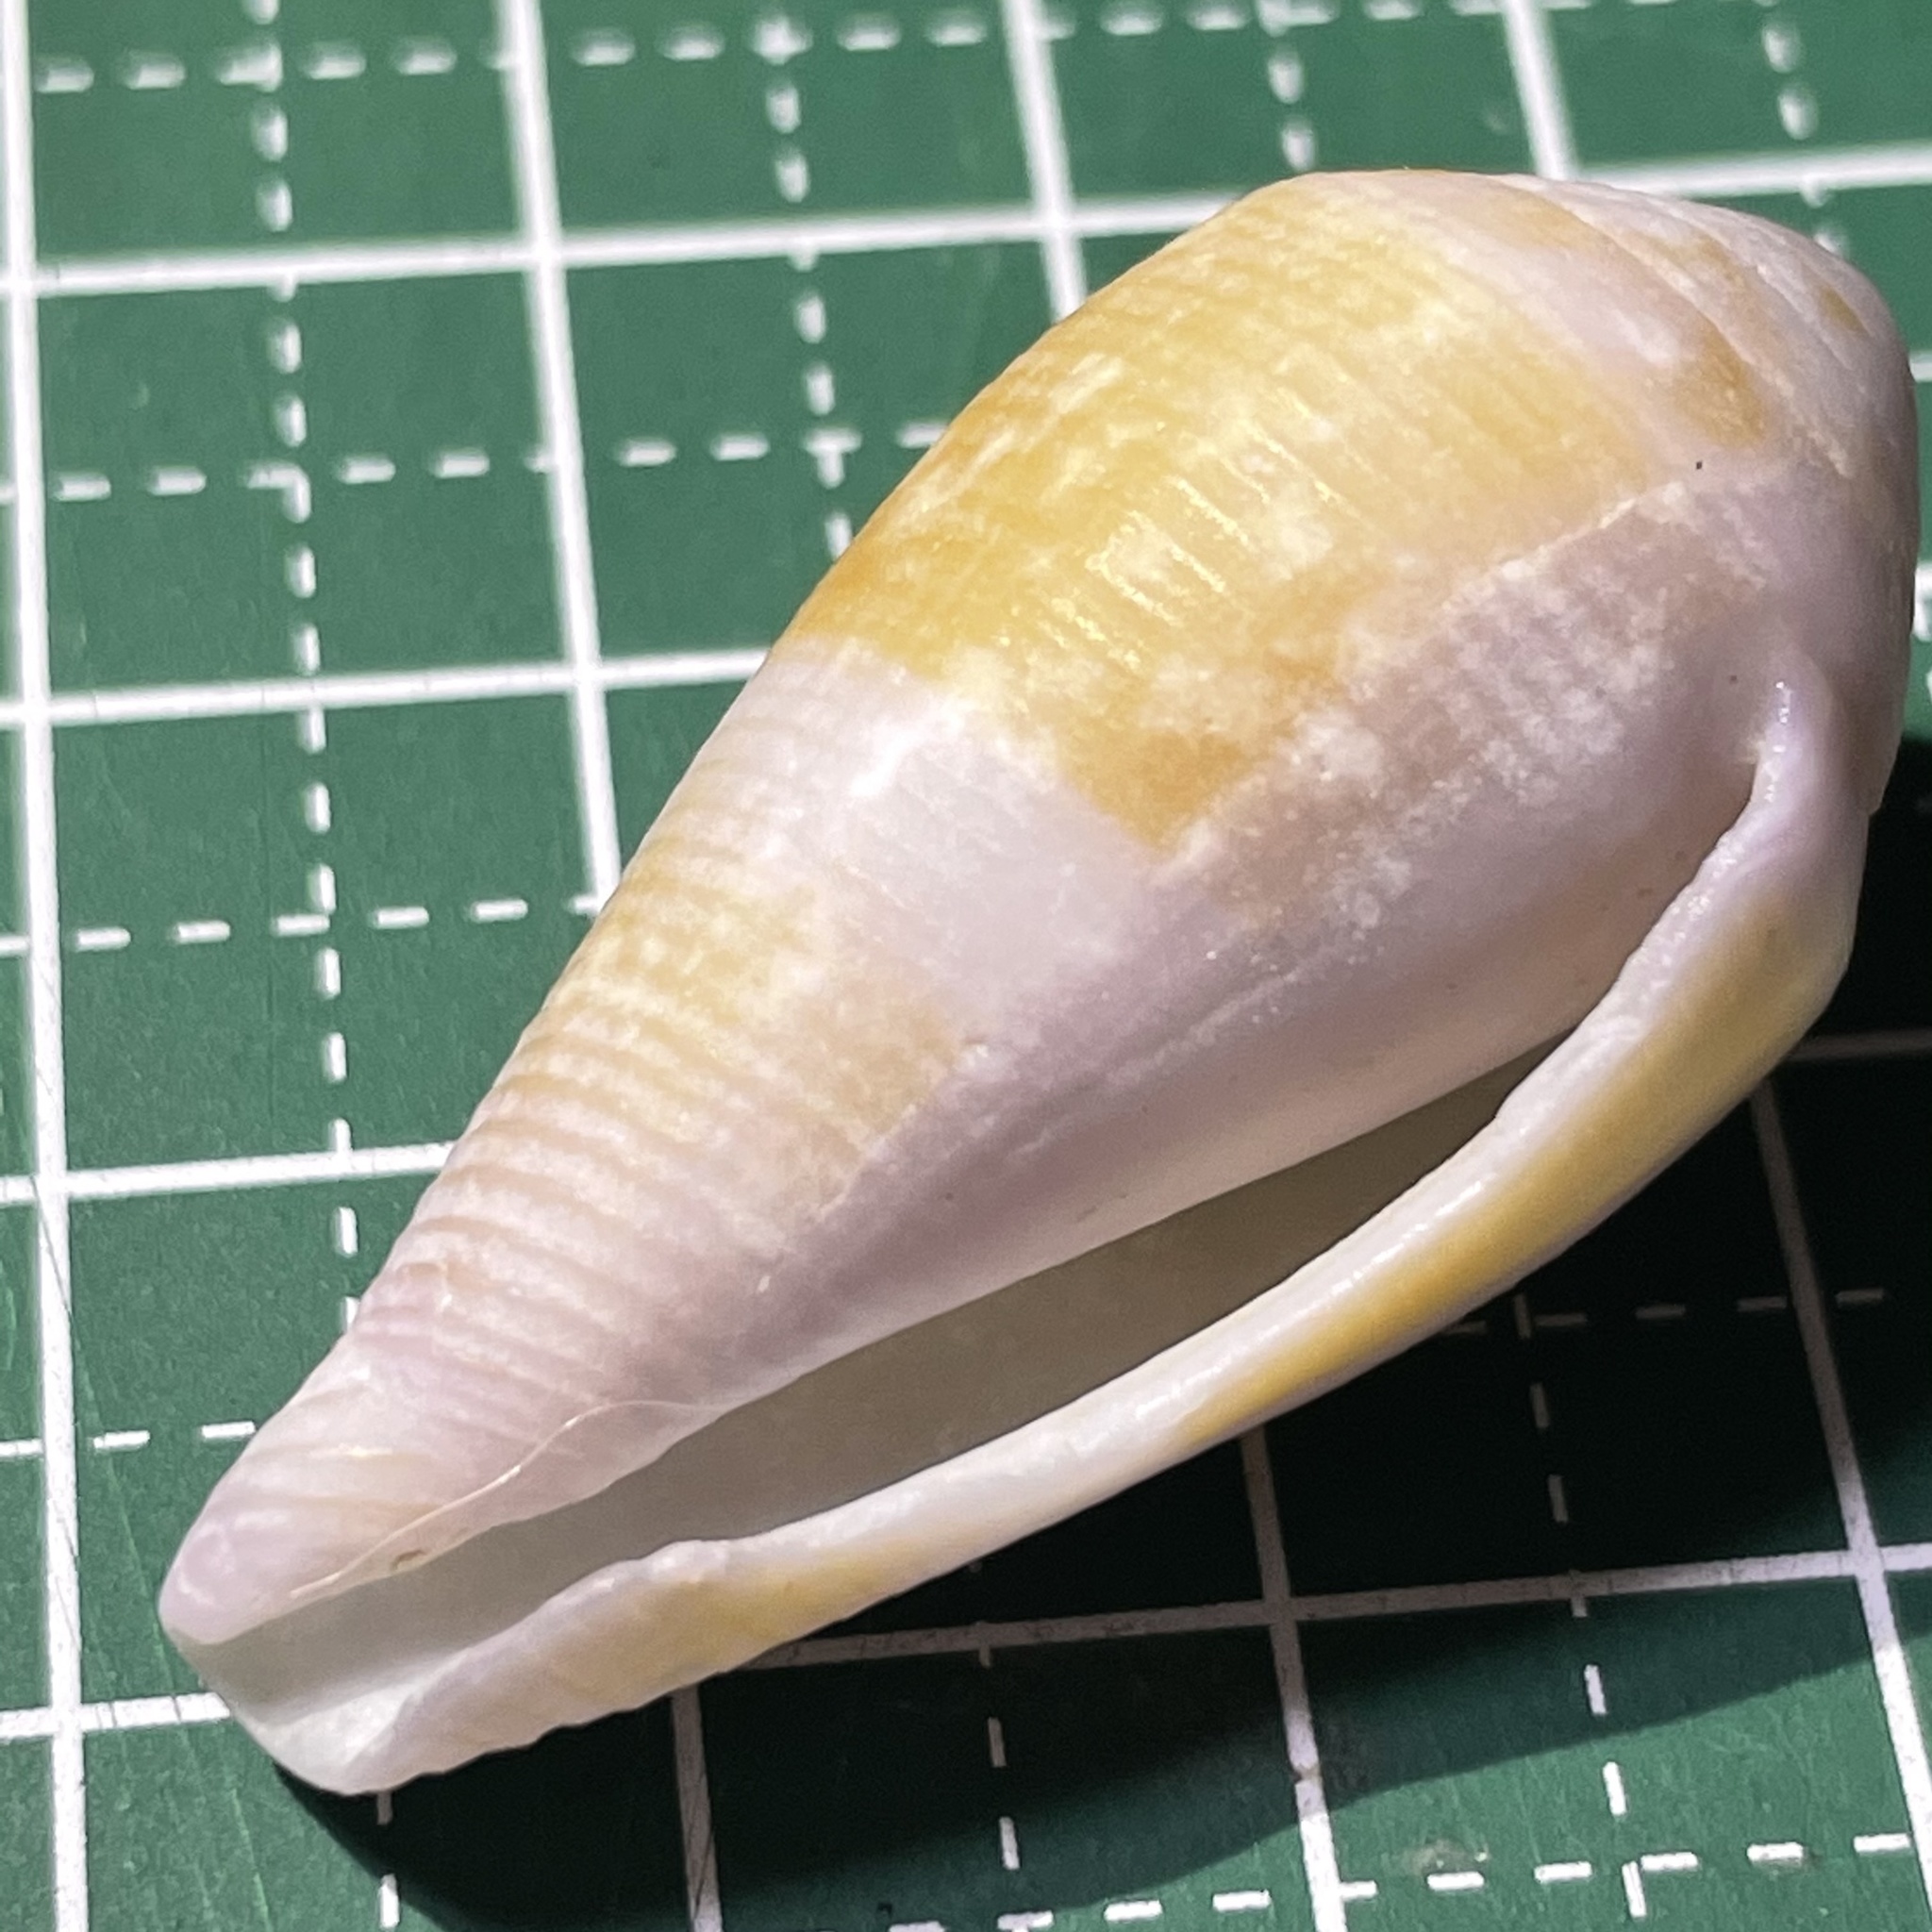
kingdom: Animalia
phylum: Mollusca
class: Gastropoda
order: Neogastropoda
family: Conidae
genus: Conus
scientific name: Conus glans
